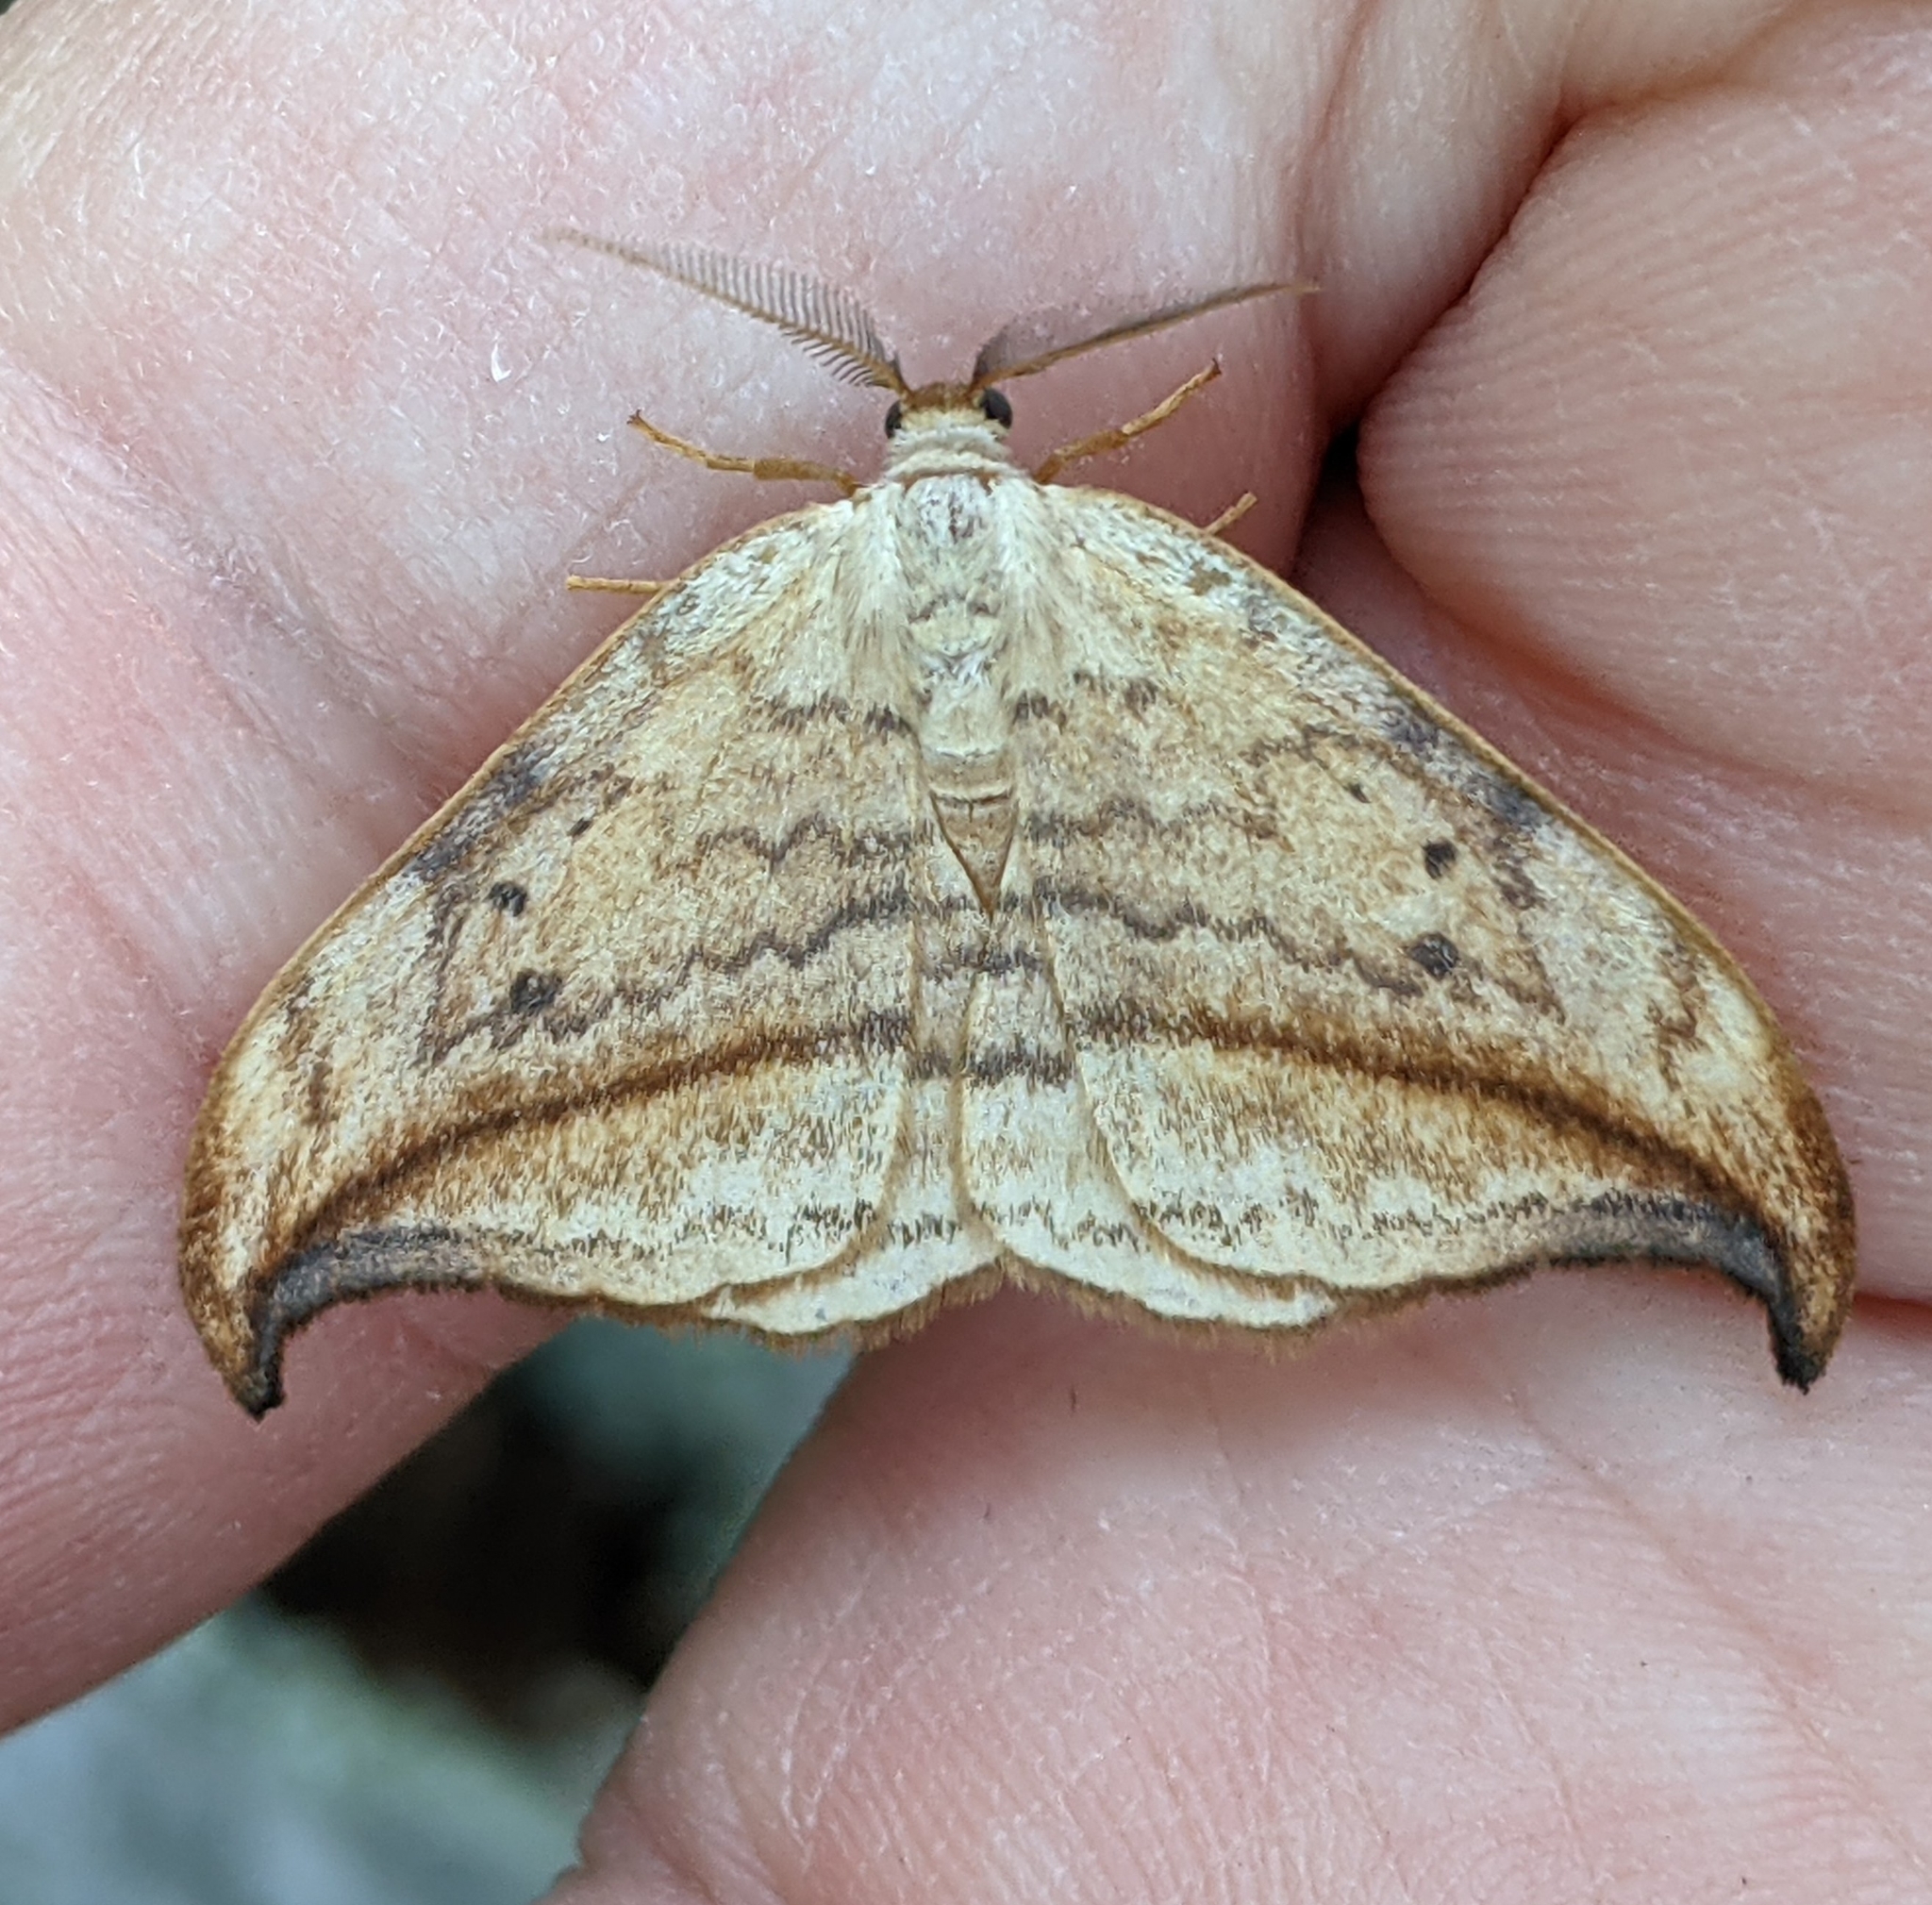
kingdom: Animalia
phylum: Arthropoda
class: Insecta
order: Lepidoptera
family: Drepanidae
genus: Drepana
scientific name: Drepana arcuata
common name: Arched hooktip moth
